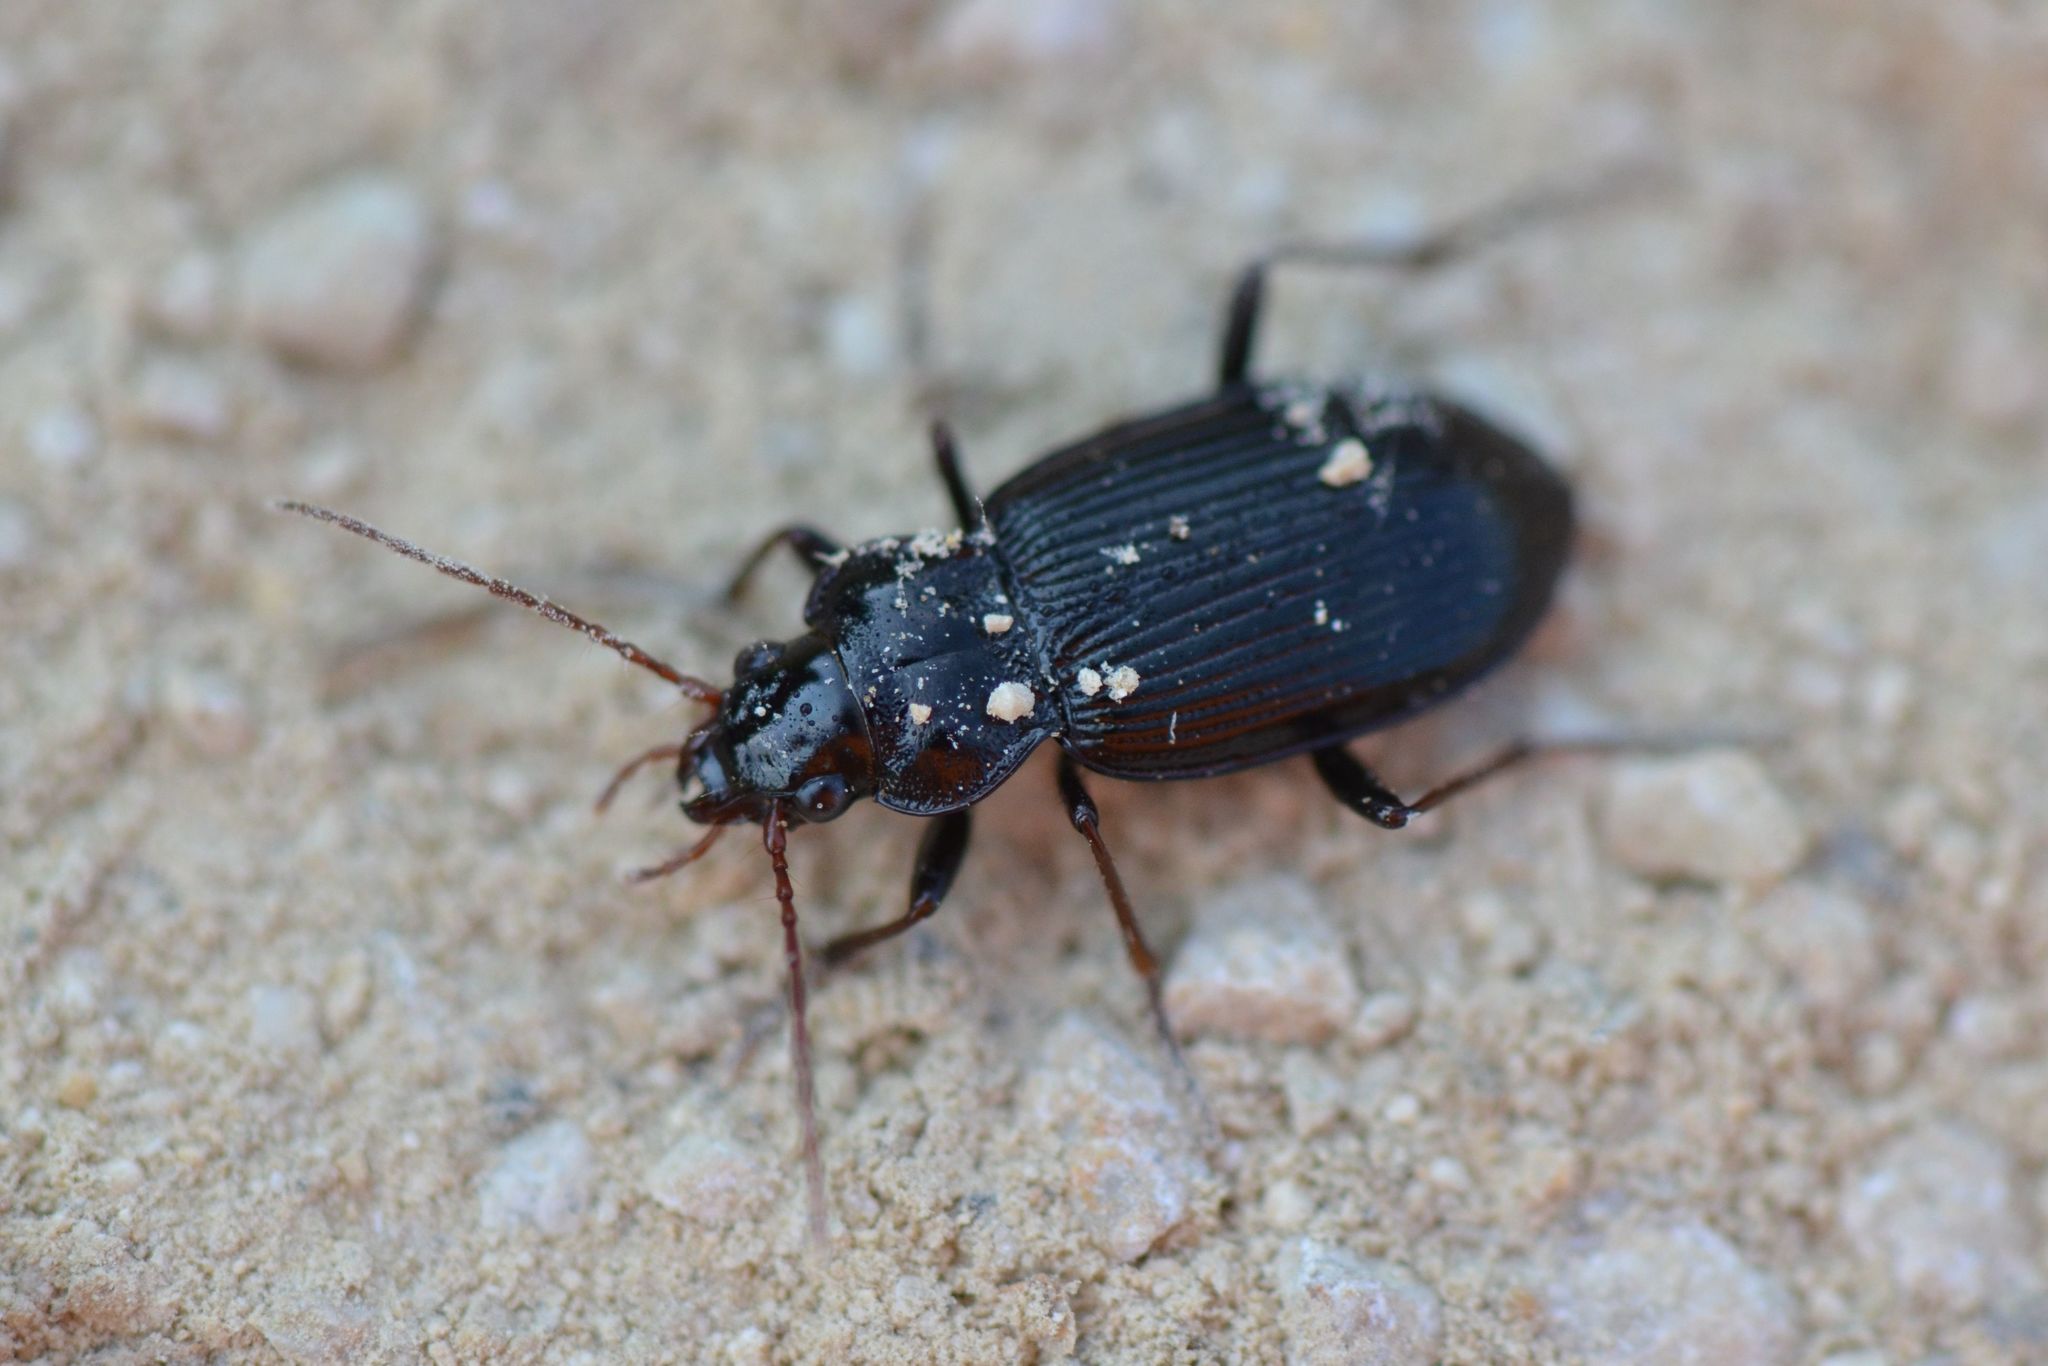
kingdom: Animalia
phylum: Arthropoda
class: Insecta
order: Coleoptera
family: Carabidae
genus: Nebria
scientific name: Nebria brevicollis
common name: Short-necked gazelle beetle
